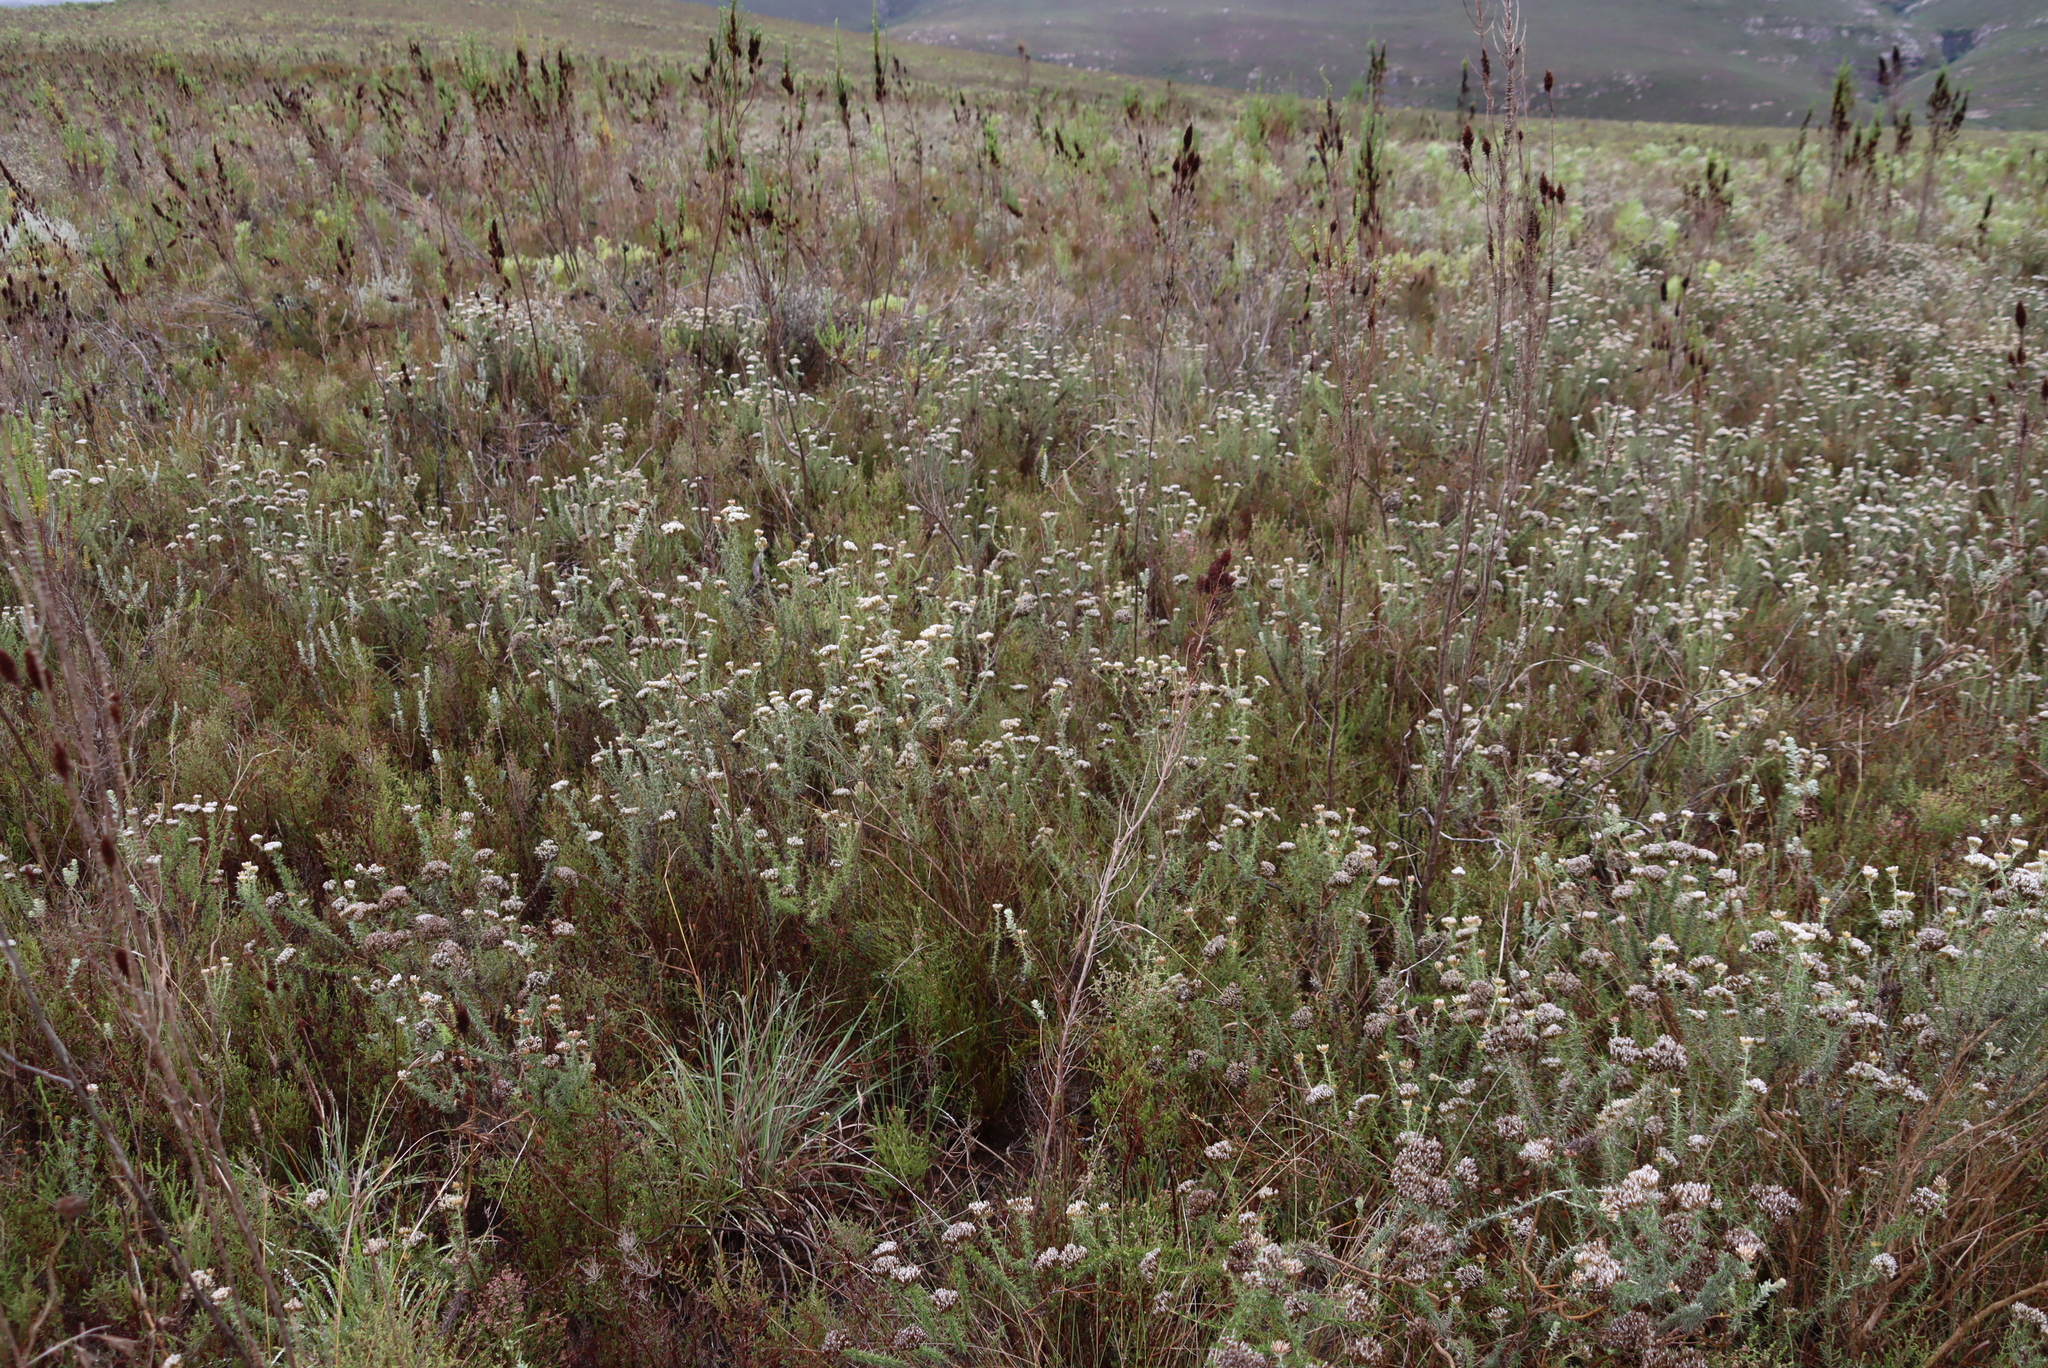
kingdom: Plantae
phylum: Tracheophyta
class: Magnoliopsida
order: Asterales
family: Asteraceae
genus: Metalasia
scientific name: Metalasia densa
